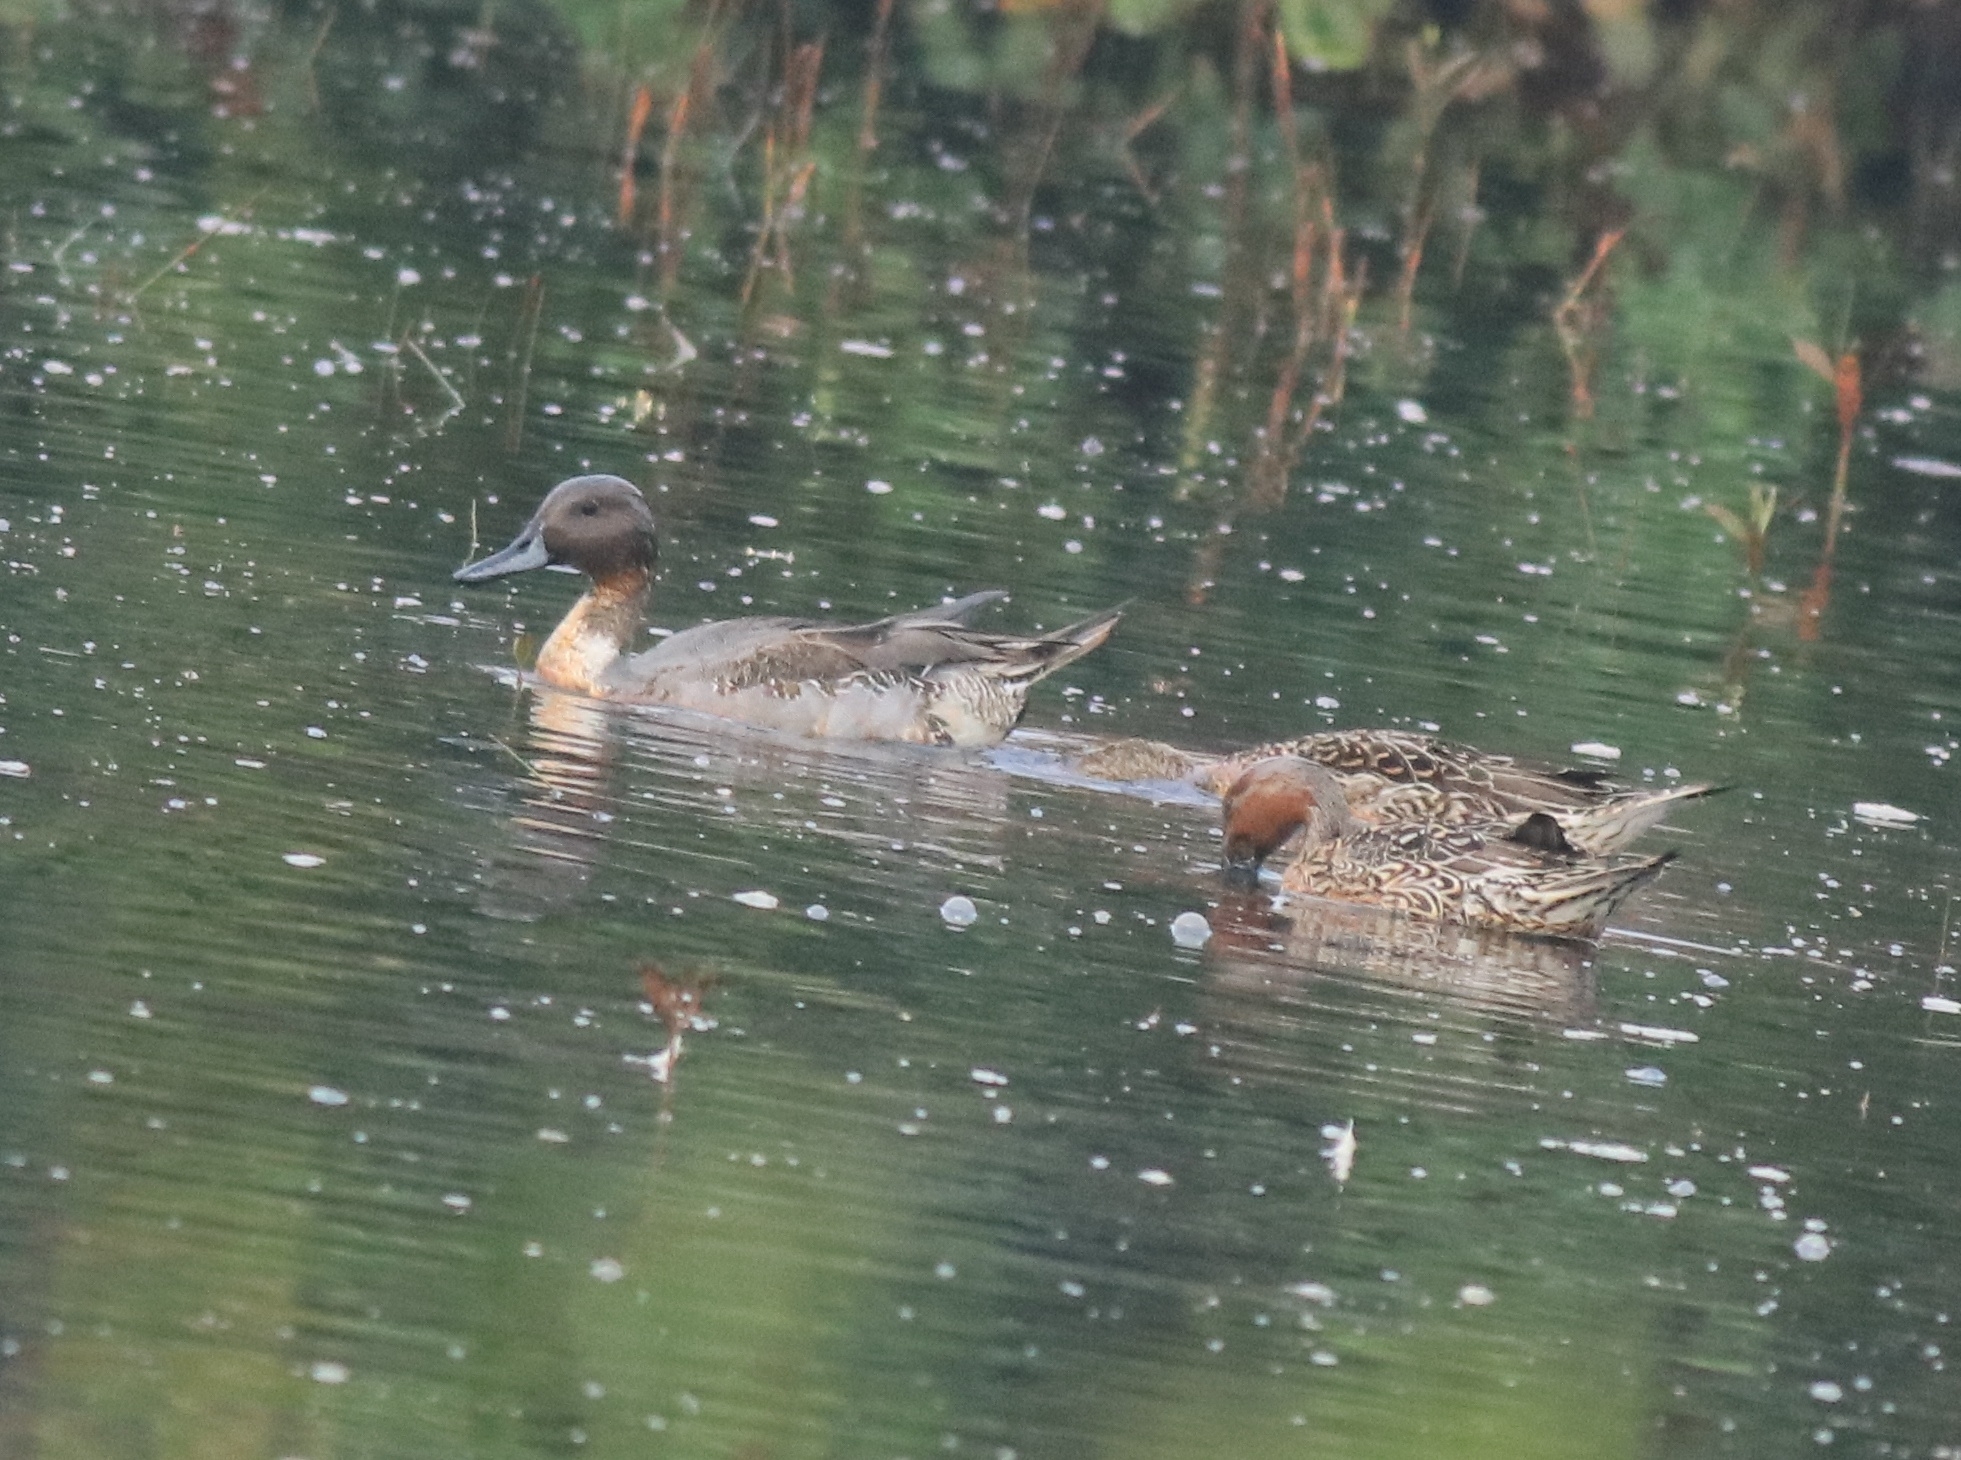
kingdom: Animalia
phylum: Chordata
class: Aves
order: Anseriformes
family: Anatidae
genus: Anas
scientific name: Anas acuta
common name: Northern pintail
